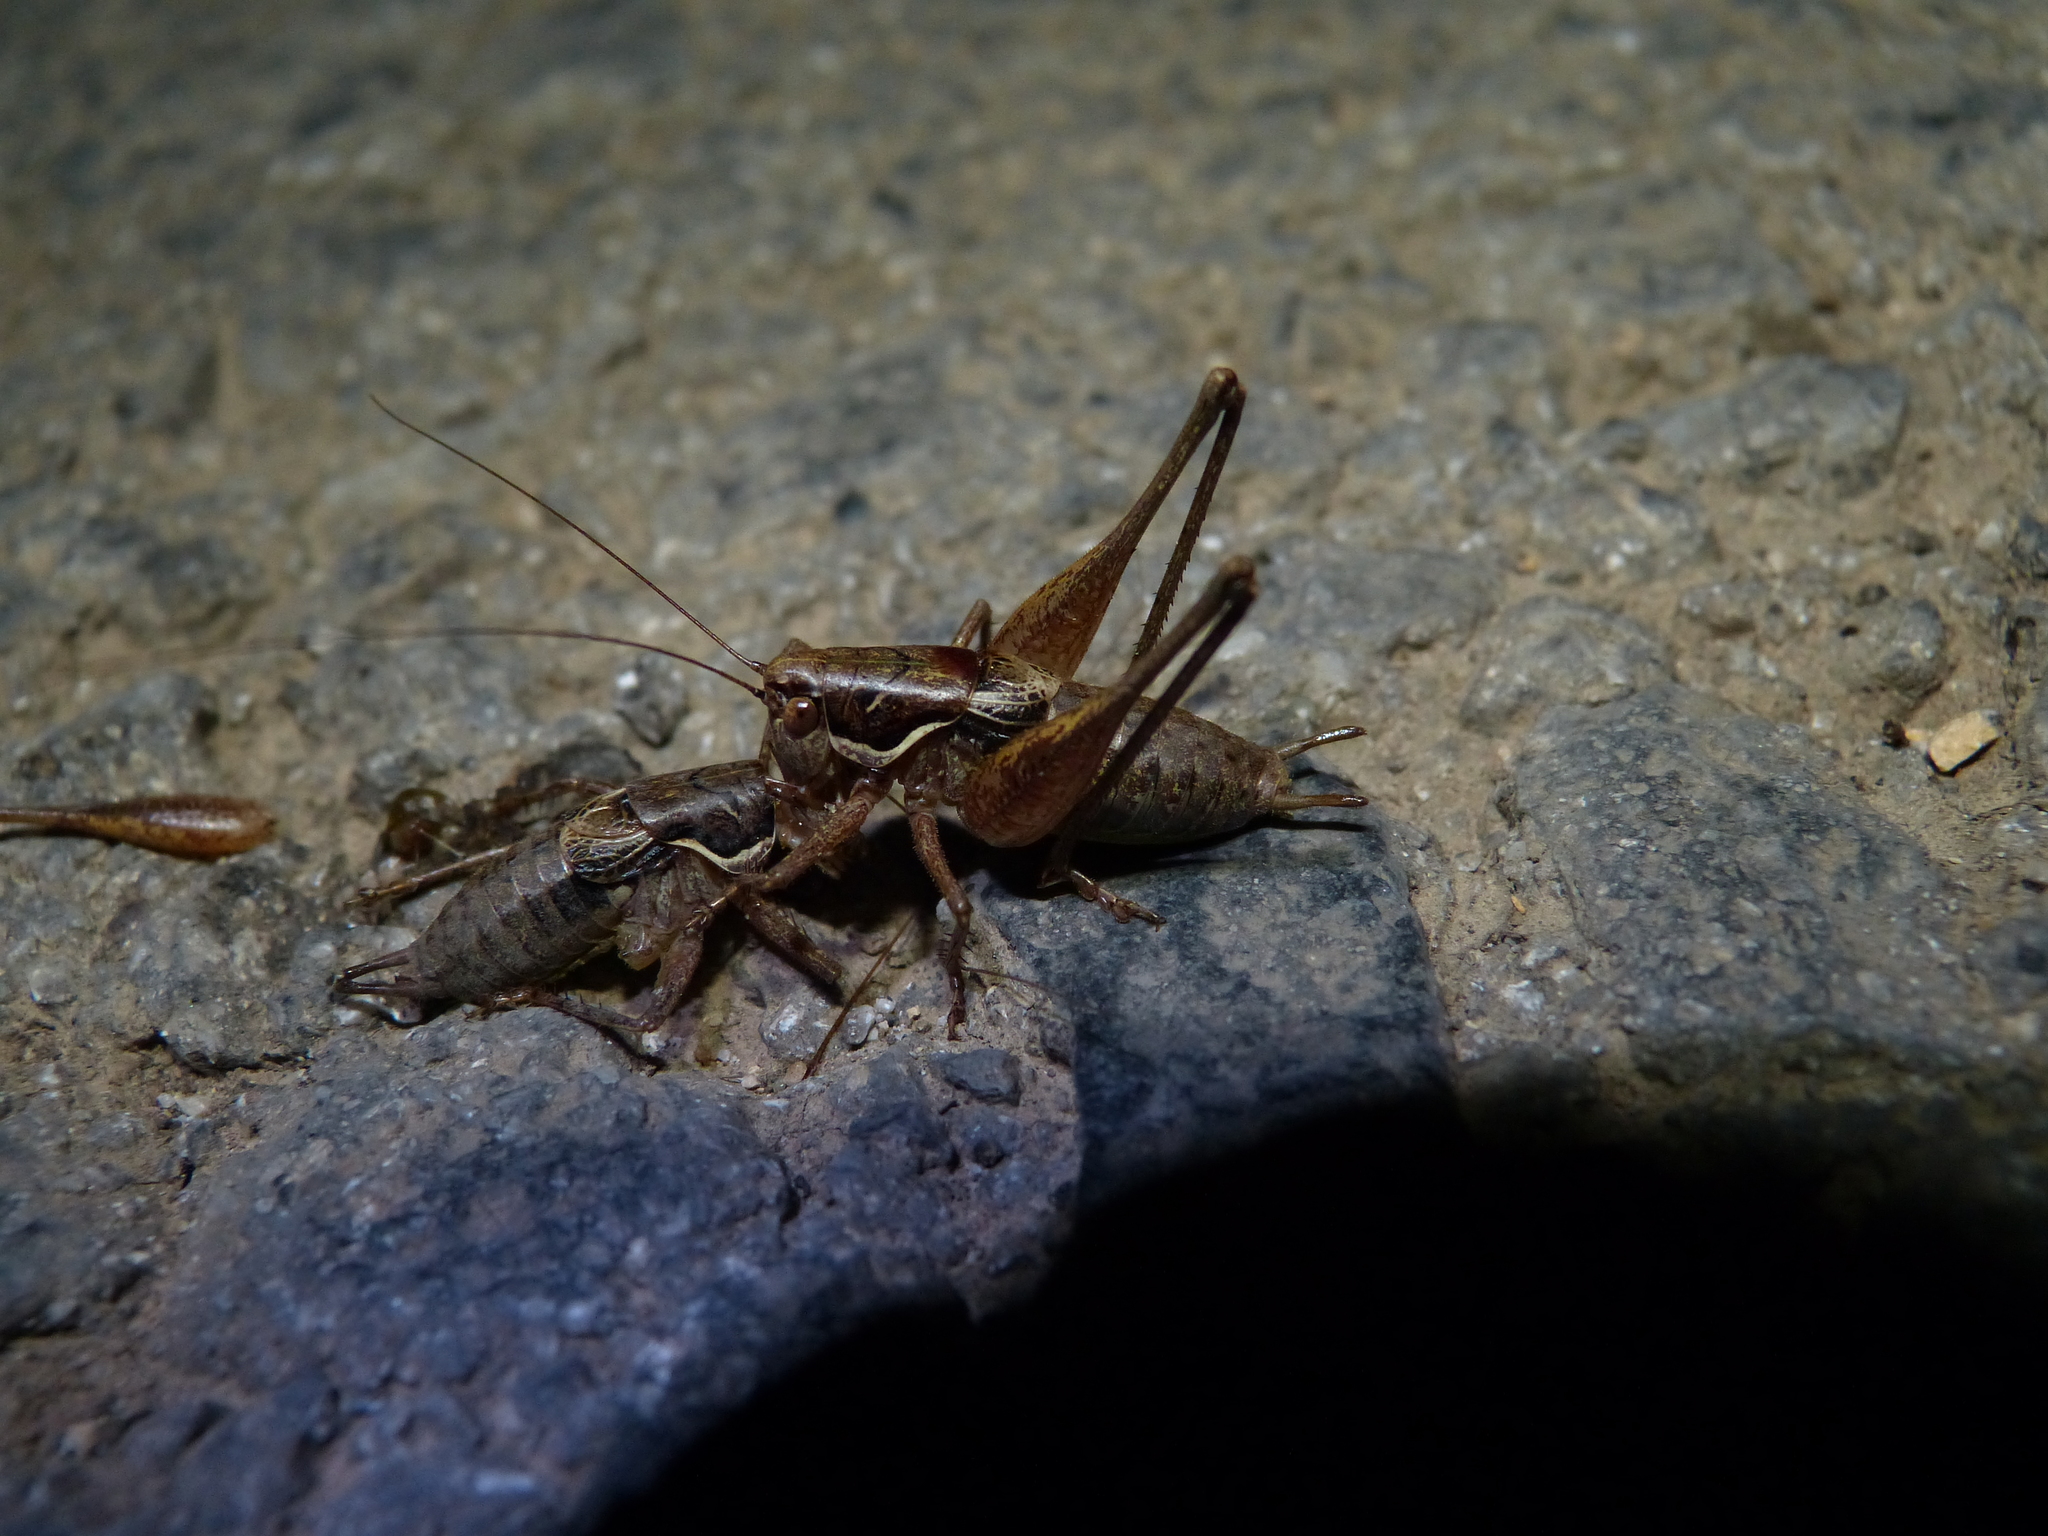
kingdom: Animalia
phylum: Arthropoda
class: Insecta
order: Orthoptera
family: Tettigoniidae
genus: Pachytrachis
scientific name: Pachytrachis gracilis
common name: Graceful bush-cricket
